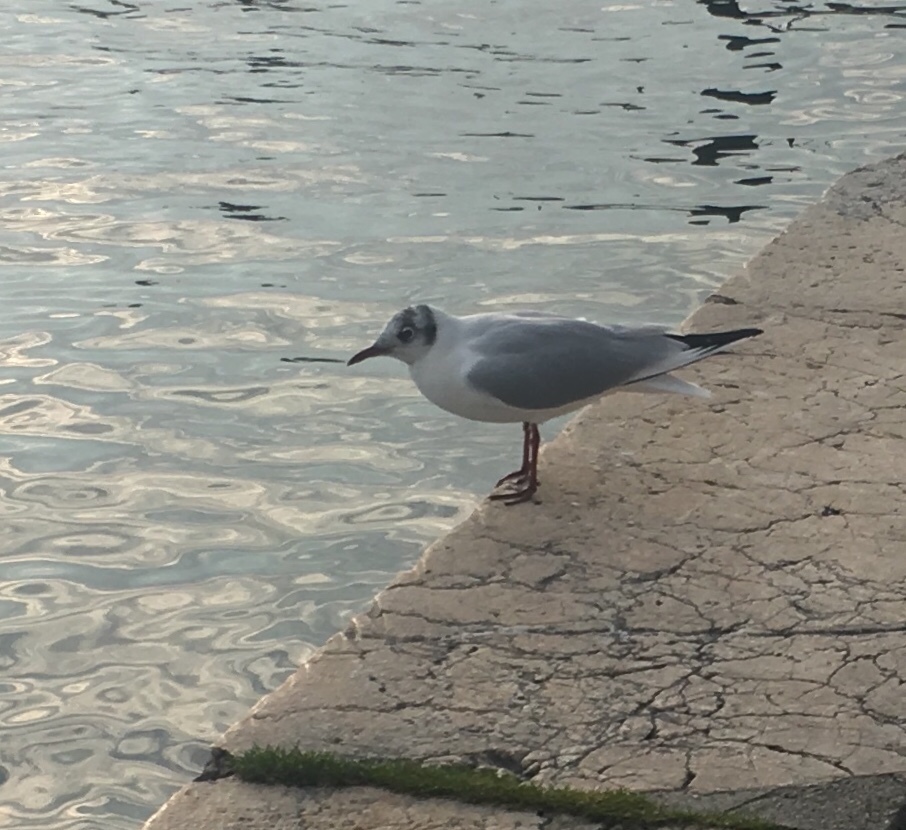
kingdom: Animalia
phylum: Chordata
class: Aves
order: Charadriiformes
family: Laridae
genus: Chroicocephalus
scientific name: Chroicocephalus ridibundus
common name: Black-headed gull
